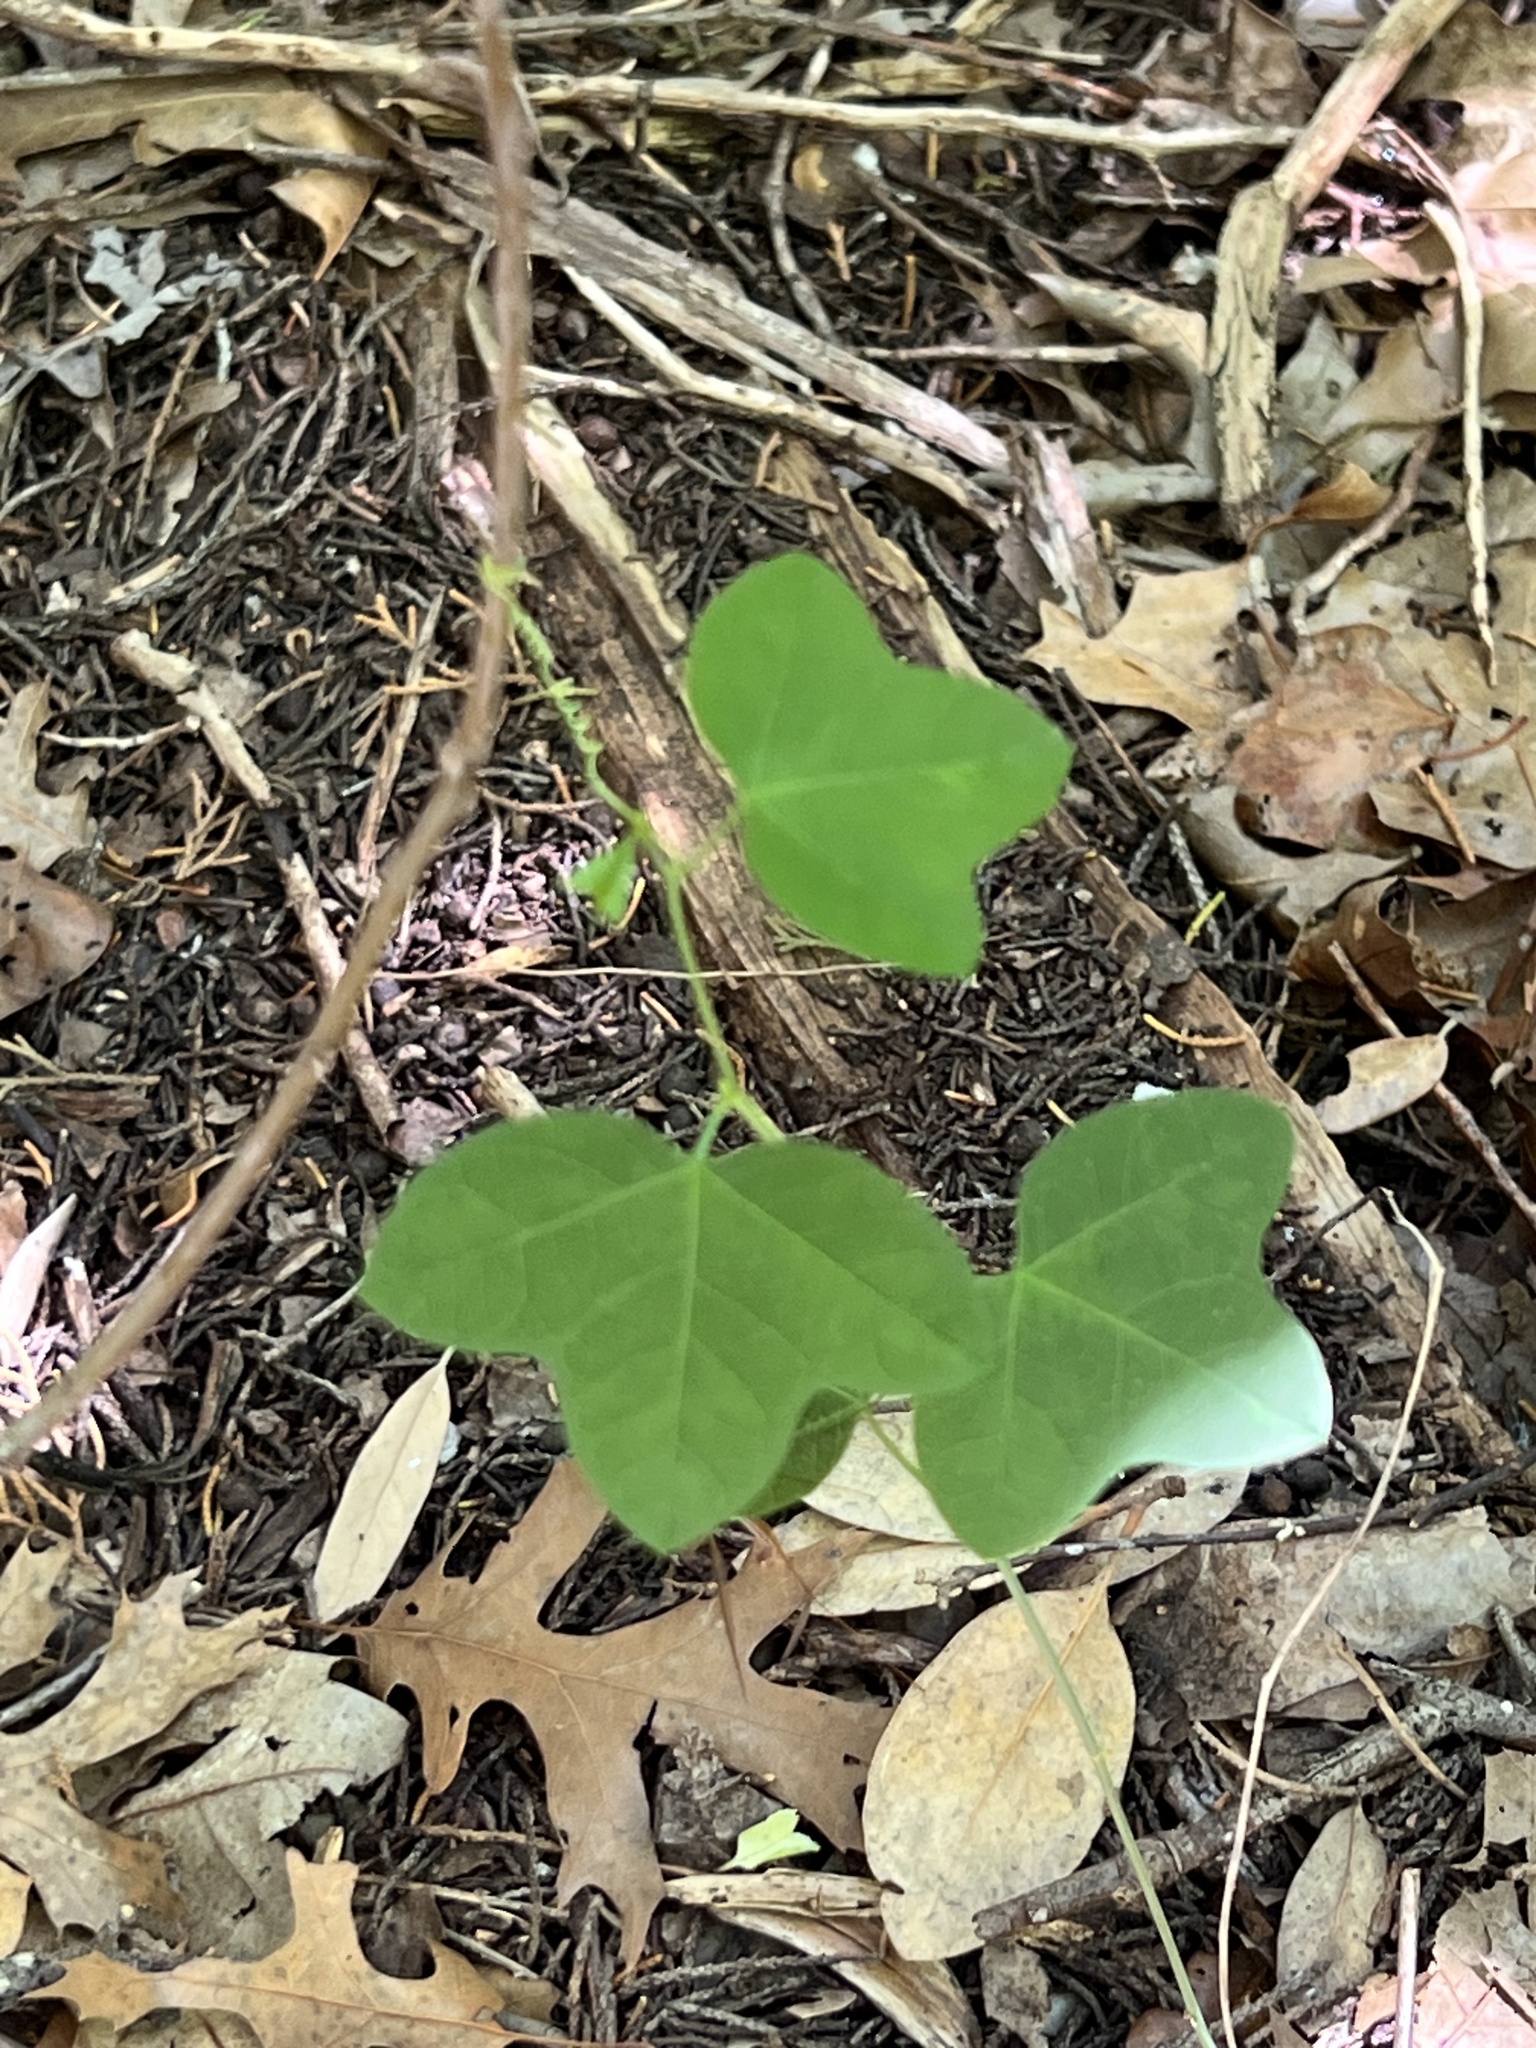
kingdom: Plantae
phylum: Tracheophyta
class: Magnoliopsida
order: Malpighiales
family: Passifloraceae
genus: Passiflora
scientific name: Passiflora lutea
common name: Yellow passionflower
